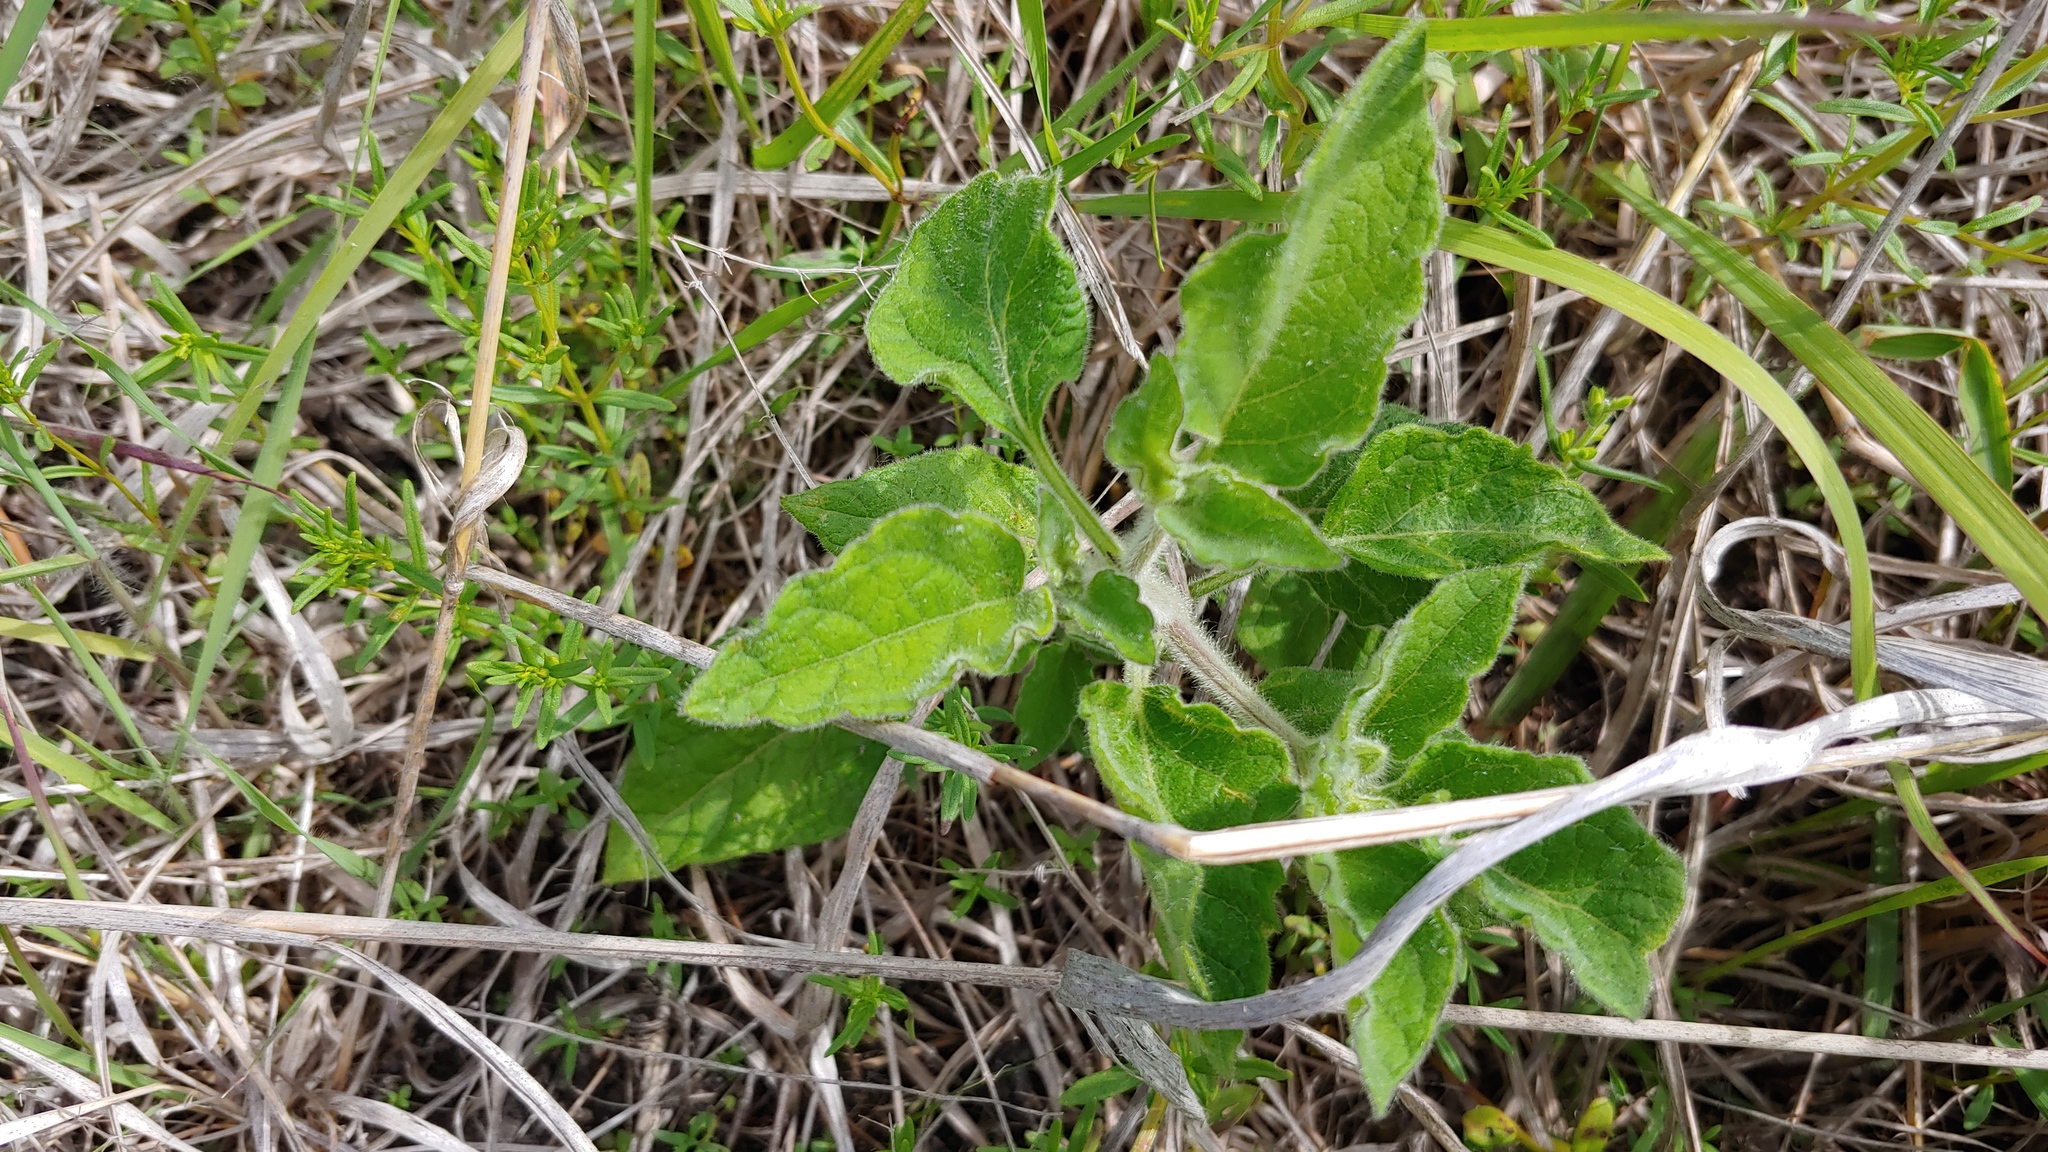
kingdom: Plantae
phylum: Tracheophyta
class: Magnoliopsida
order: Solanales
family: Solanaceae
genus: Physalis
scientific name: Physalis heterophylla
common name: Clammy ground-cherry
